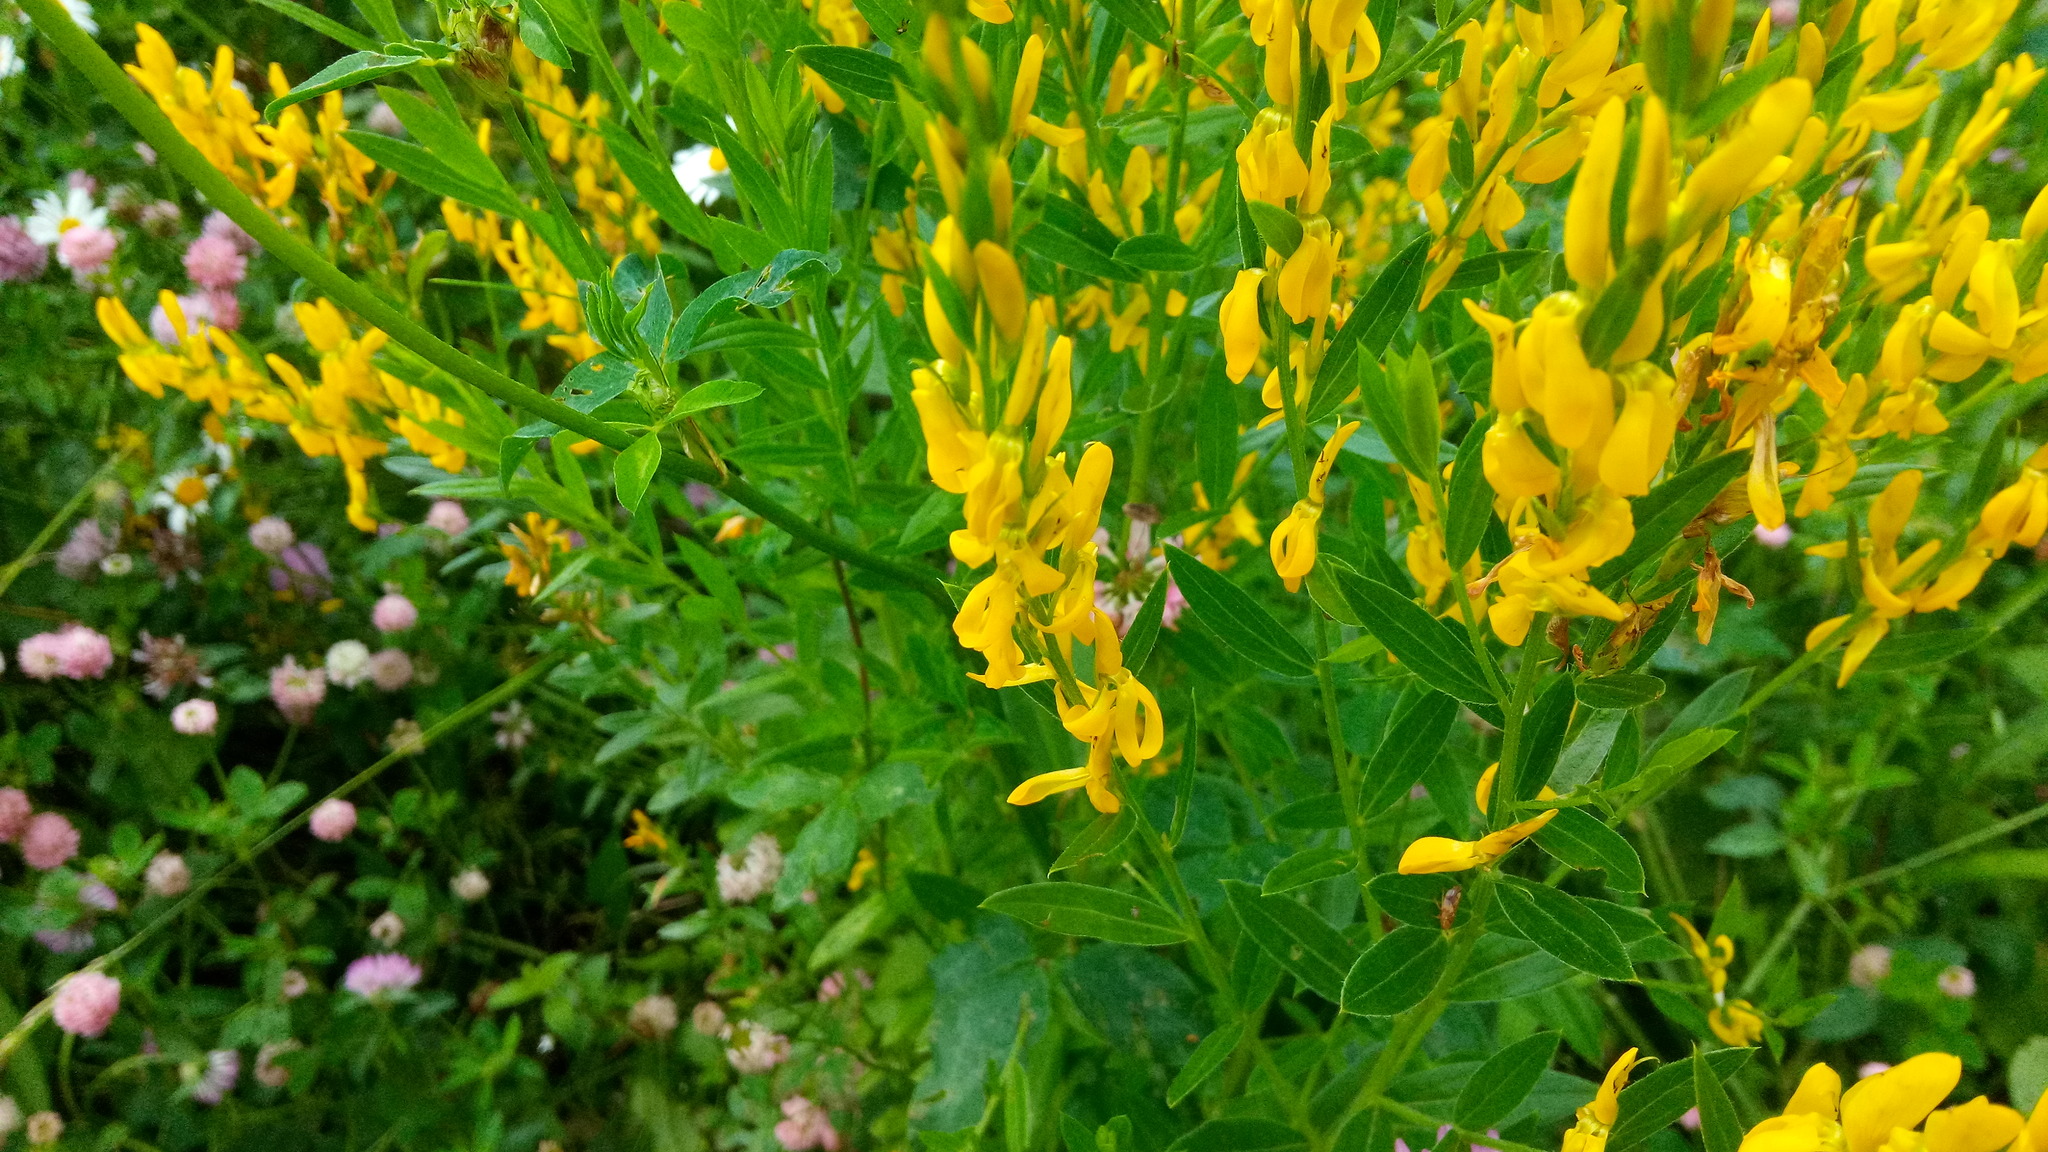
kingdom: Plantae
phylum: Tracheophyta
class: Magnoliopsida
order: Fabales
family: Fabaceae
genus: Genista
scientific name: Genista tinctoria
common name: Dyer's greenweed
